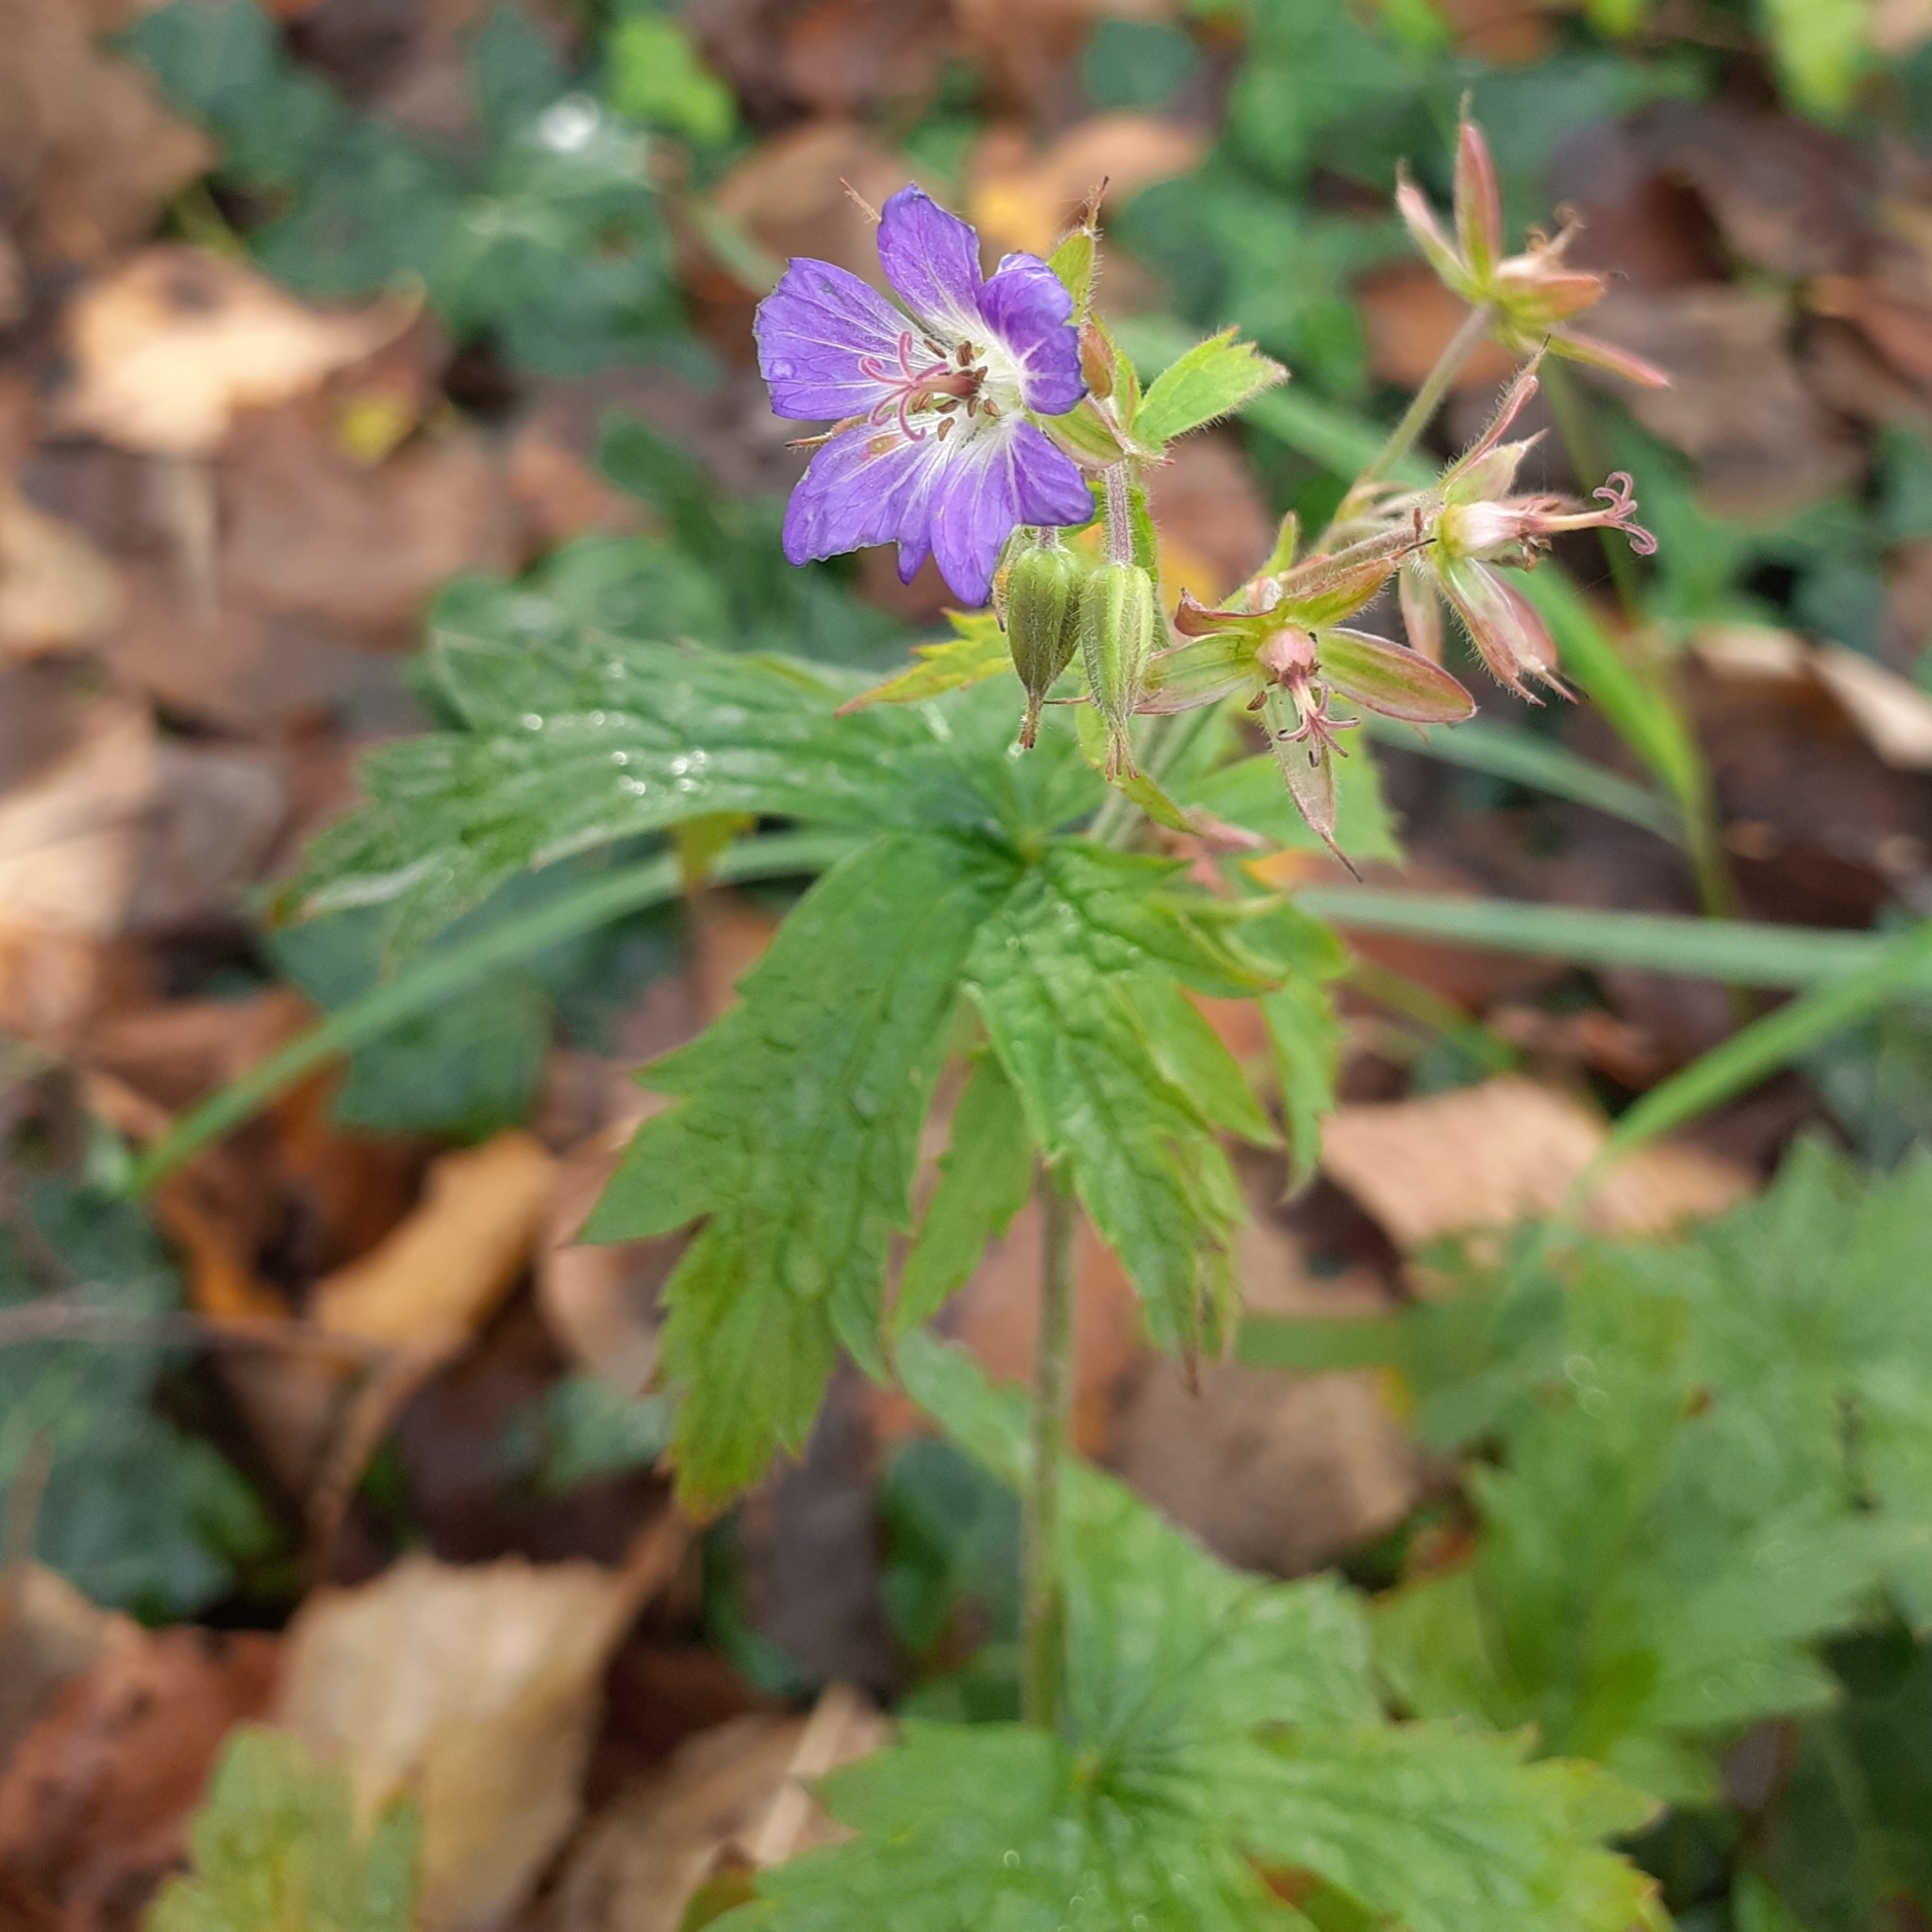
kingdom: Plantae
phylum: Tracheophyta
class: Magnoliopsida
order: Geraniales
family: Geraniaceae
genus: Geranium
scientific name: Geranium pratense
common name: Meadow crane's-bill
